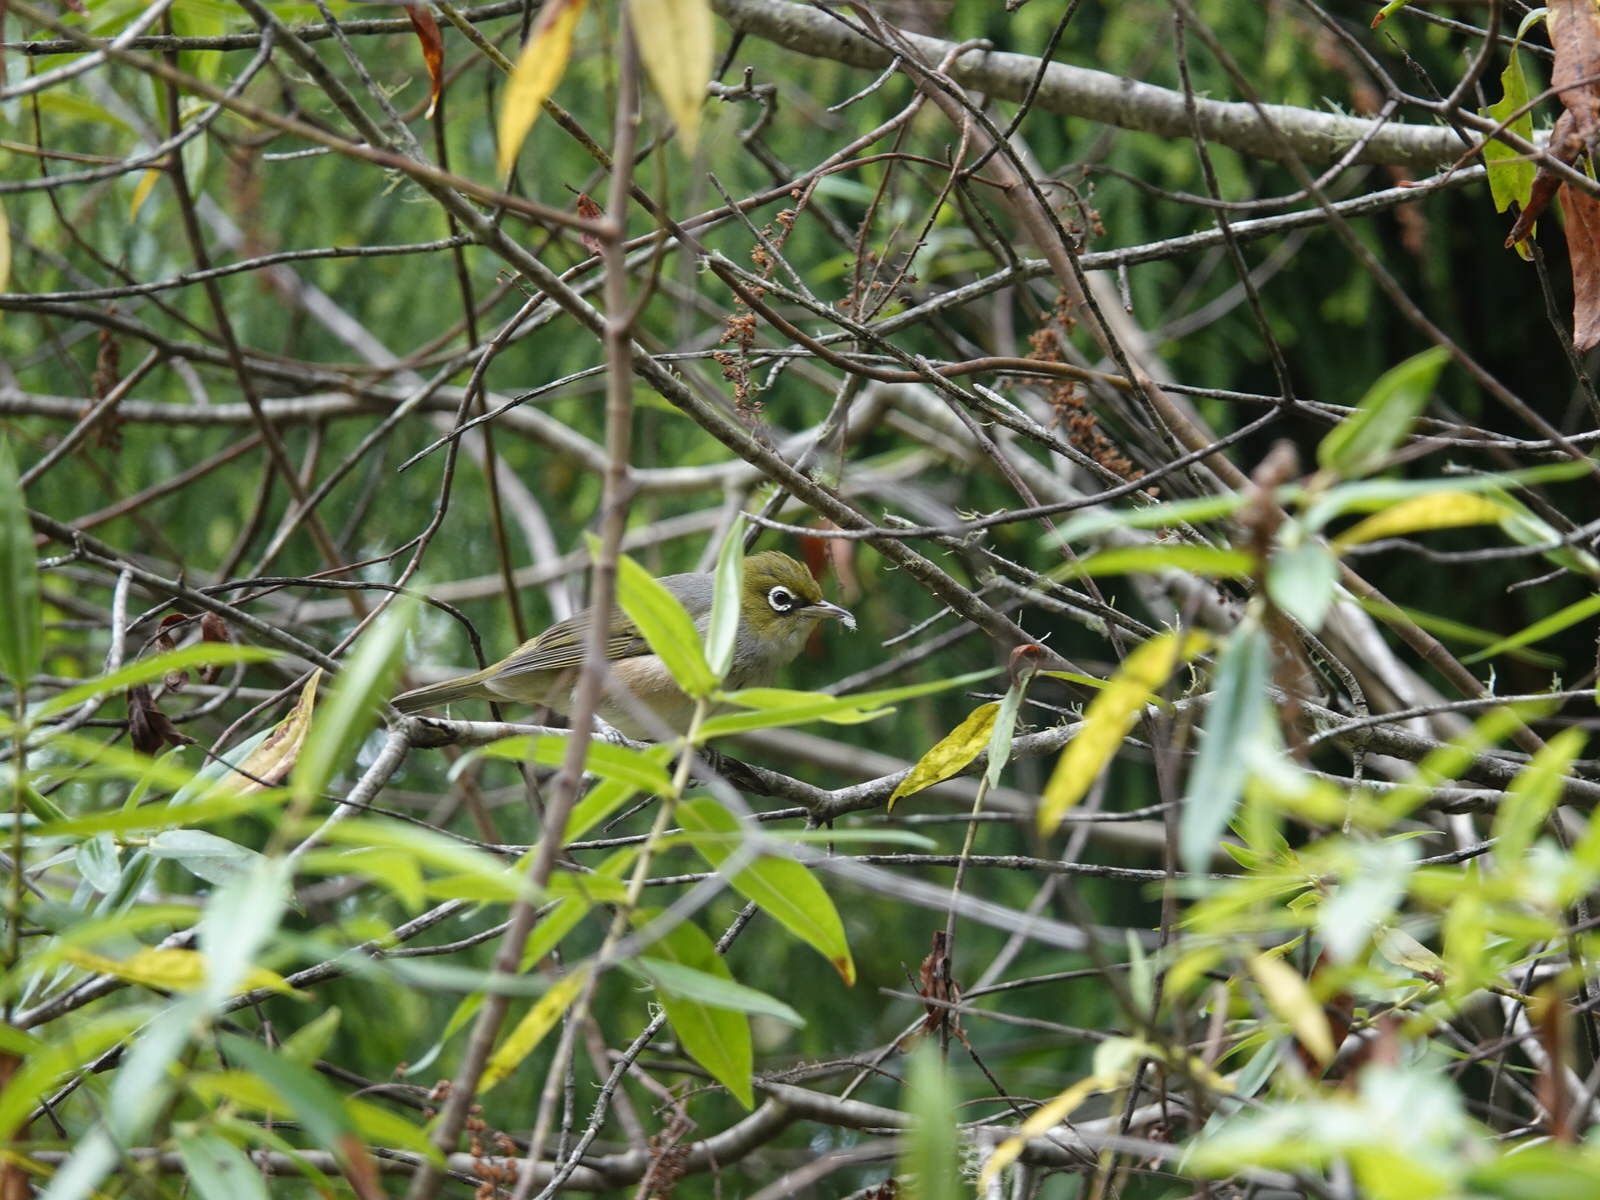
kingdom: Animalia
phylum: Chordata
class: Aves
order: Passeriformes
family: Zosteropidae
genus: Zosterops
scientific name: Zosterops lateralis
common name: Silvereye
